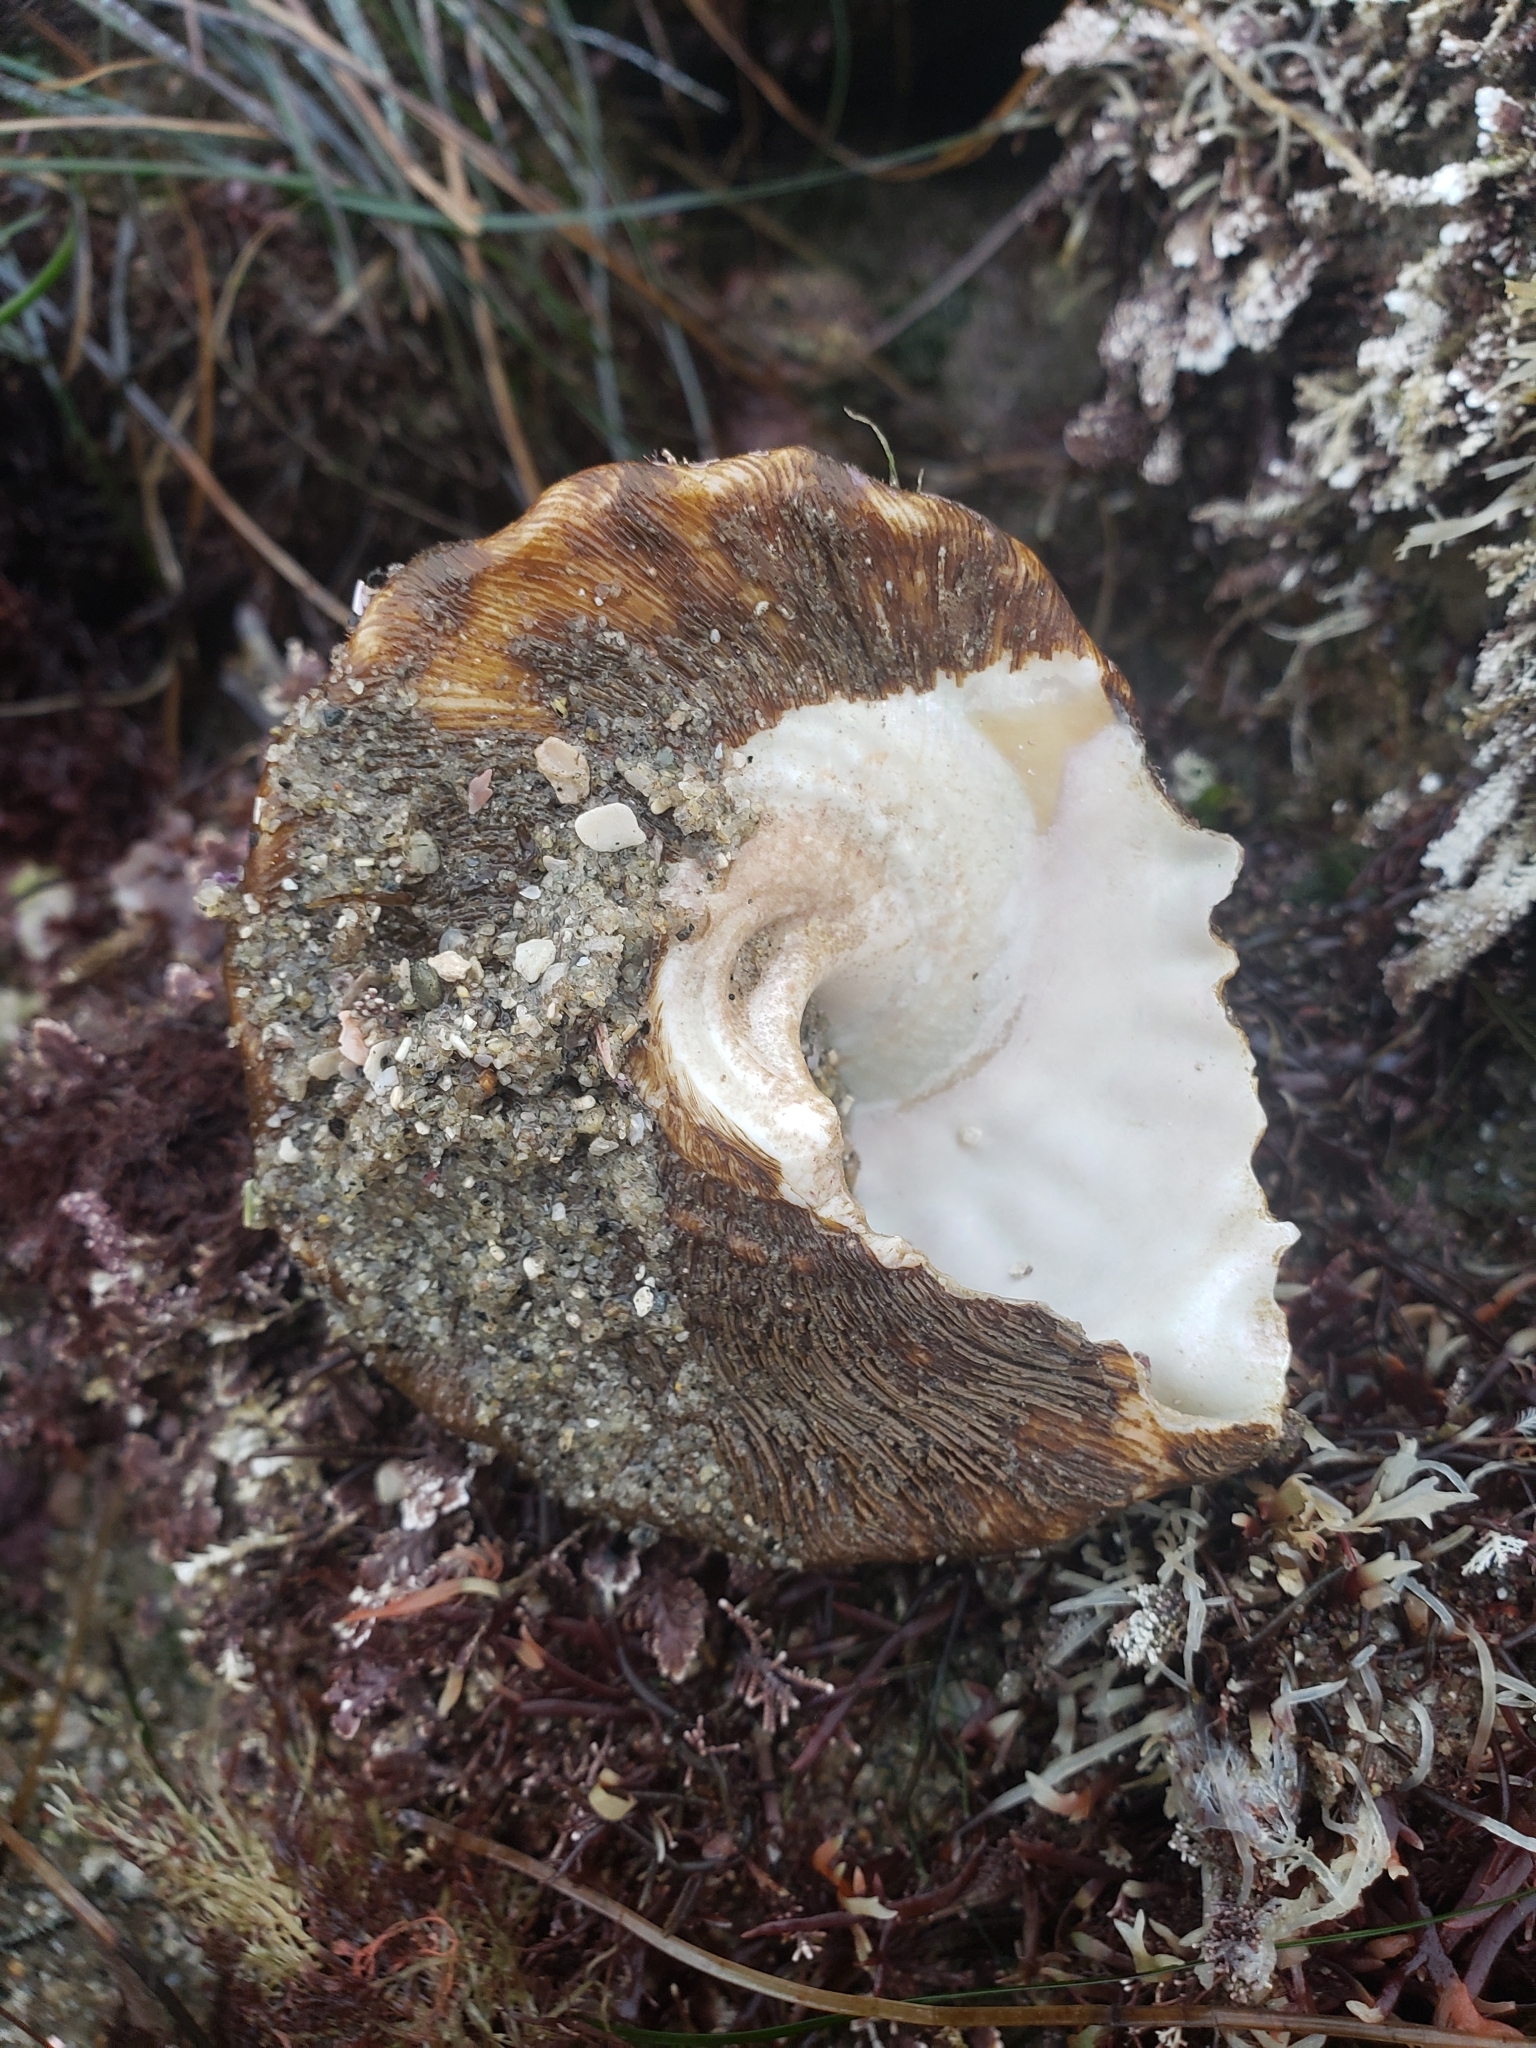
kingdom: Animalia
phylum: Mollusca
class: Gastropoda
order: Trochida
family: Turbinidae
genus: Megastraea
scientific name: Megastraea undosa
